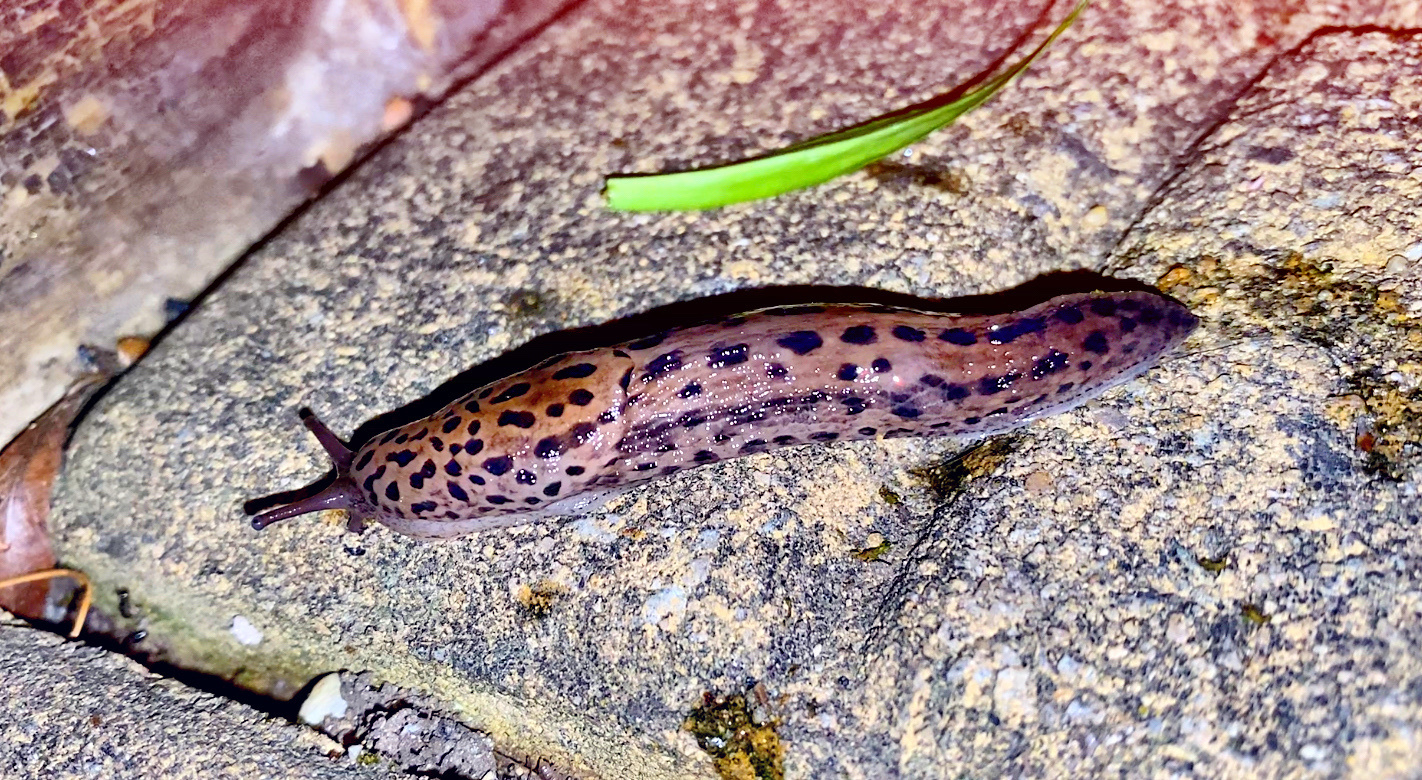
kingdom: Animalia
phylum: Mollusca
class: Gastropoda
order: Stylommatophora
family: Limacidae
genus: Limax
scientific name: Limax maximus
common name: Great grey slug
